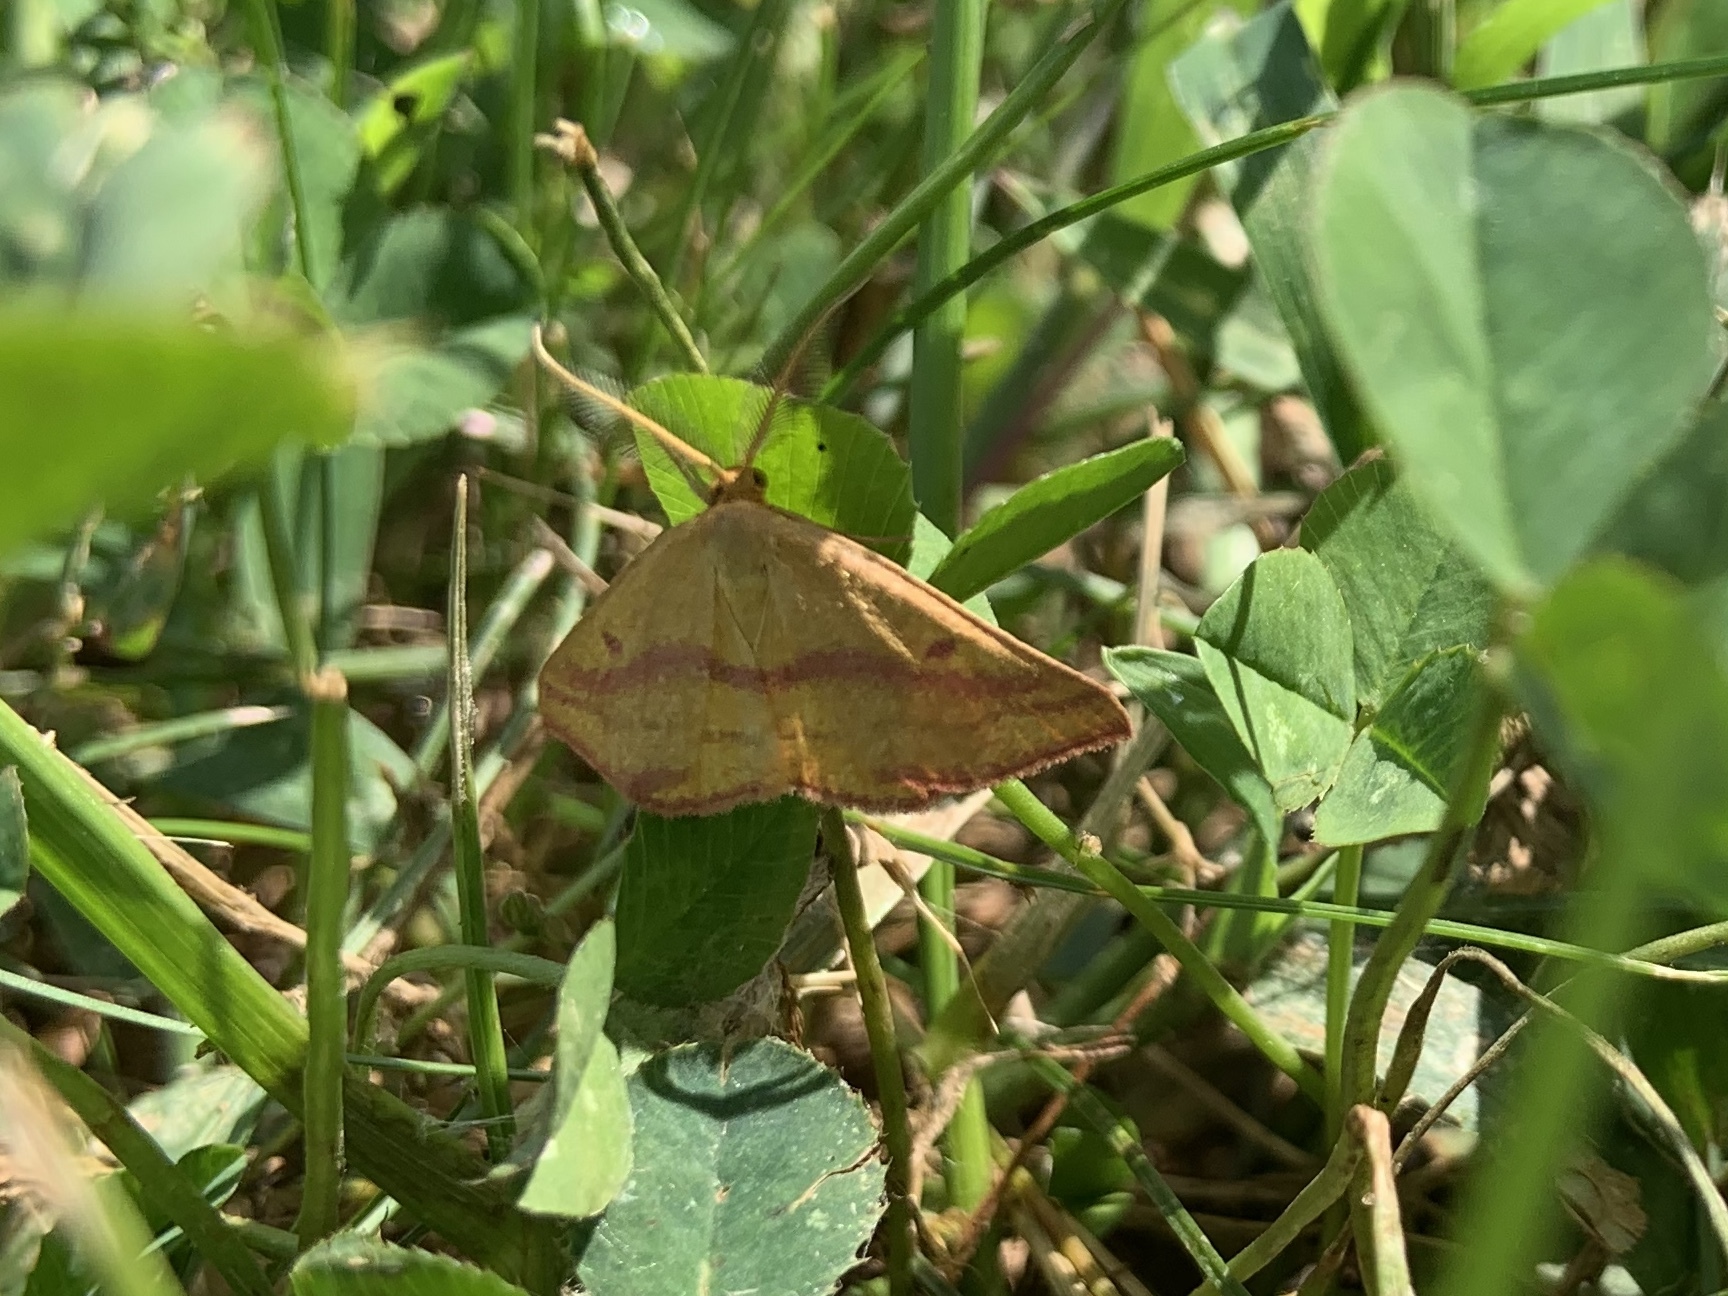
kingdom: Animalia
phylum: Arthropoda
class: Insecta
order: Lepidoptera
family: Geometridae
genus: Haematopis
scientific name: Haematopis grataria
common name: Chickweed geometer
